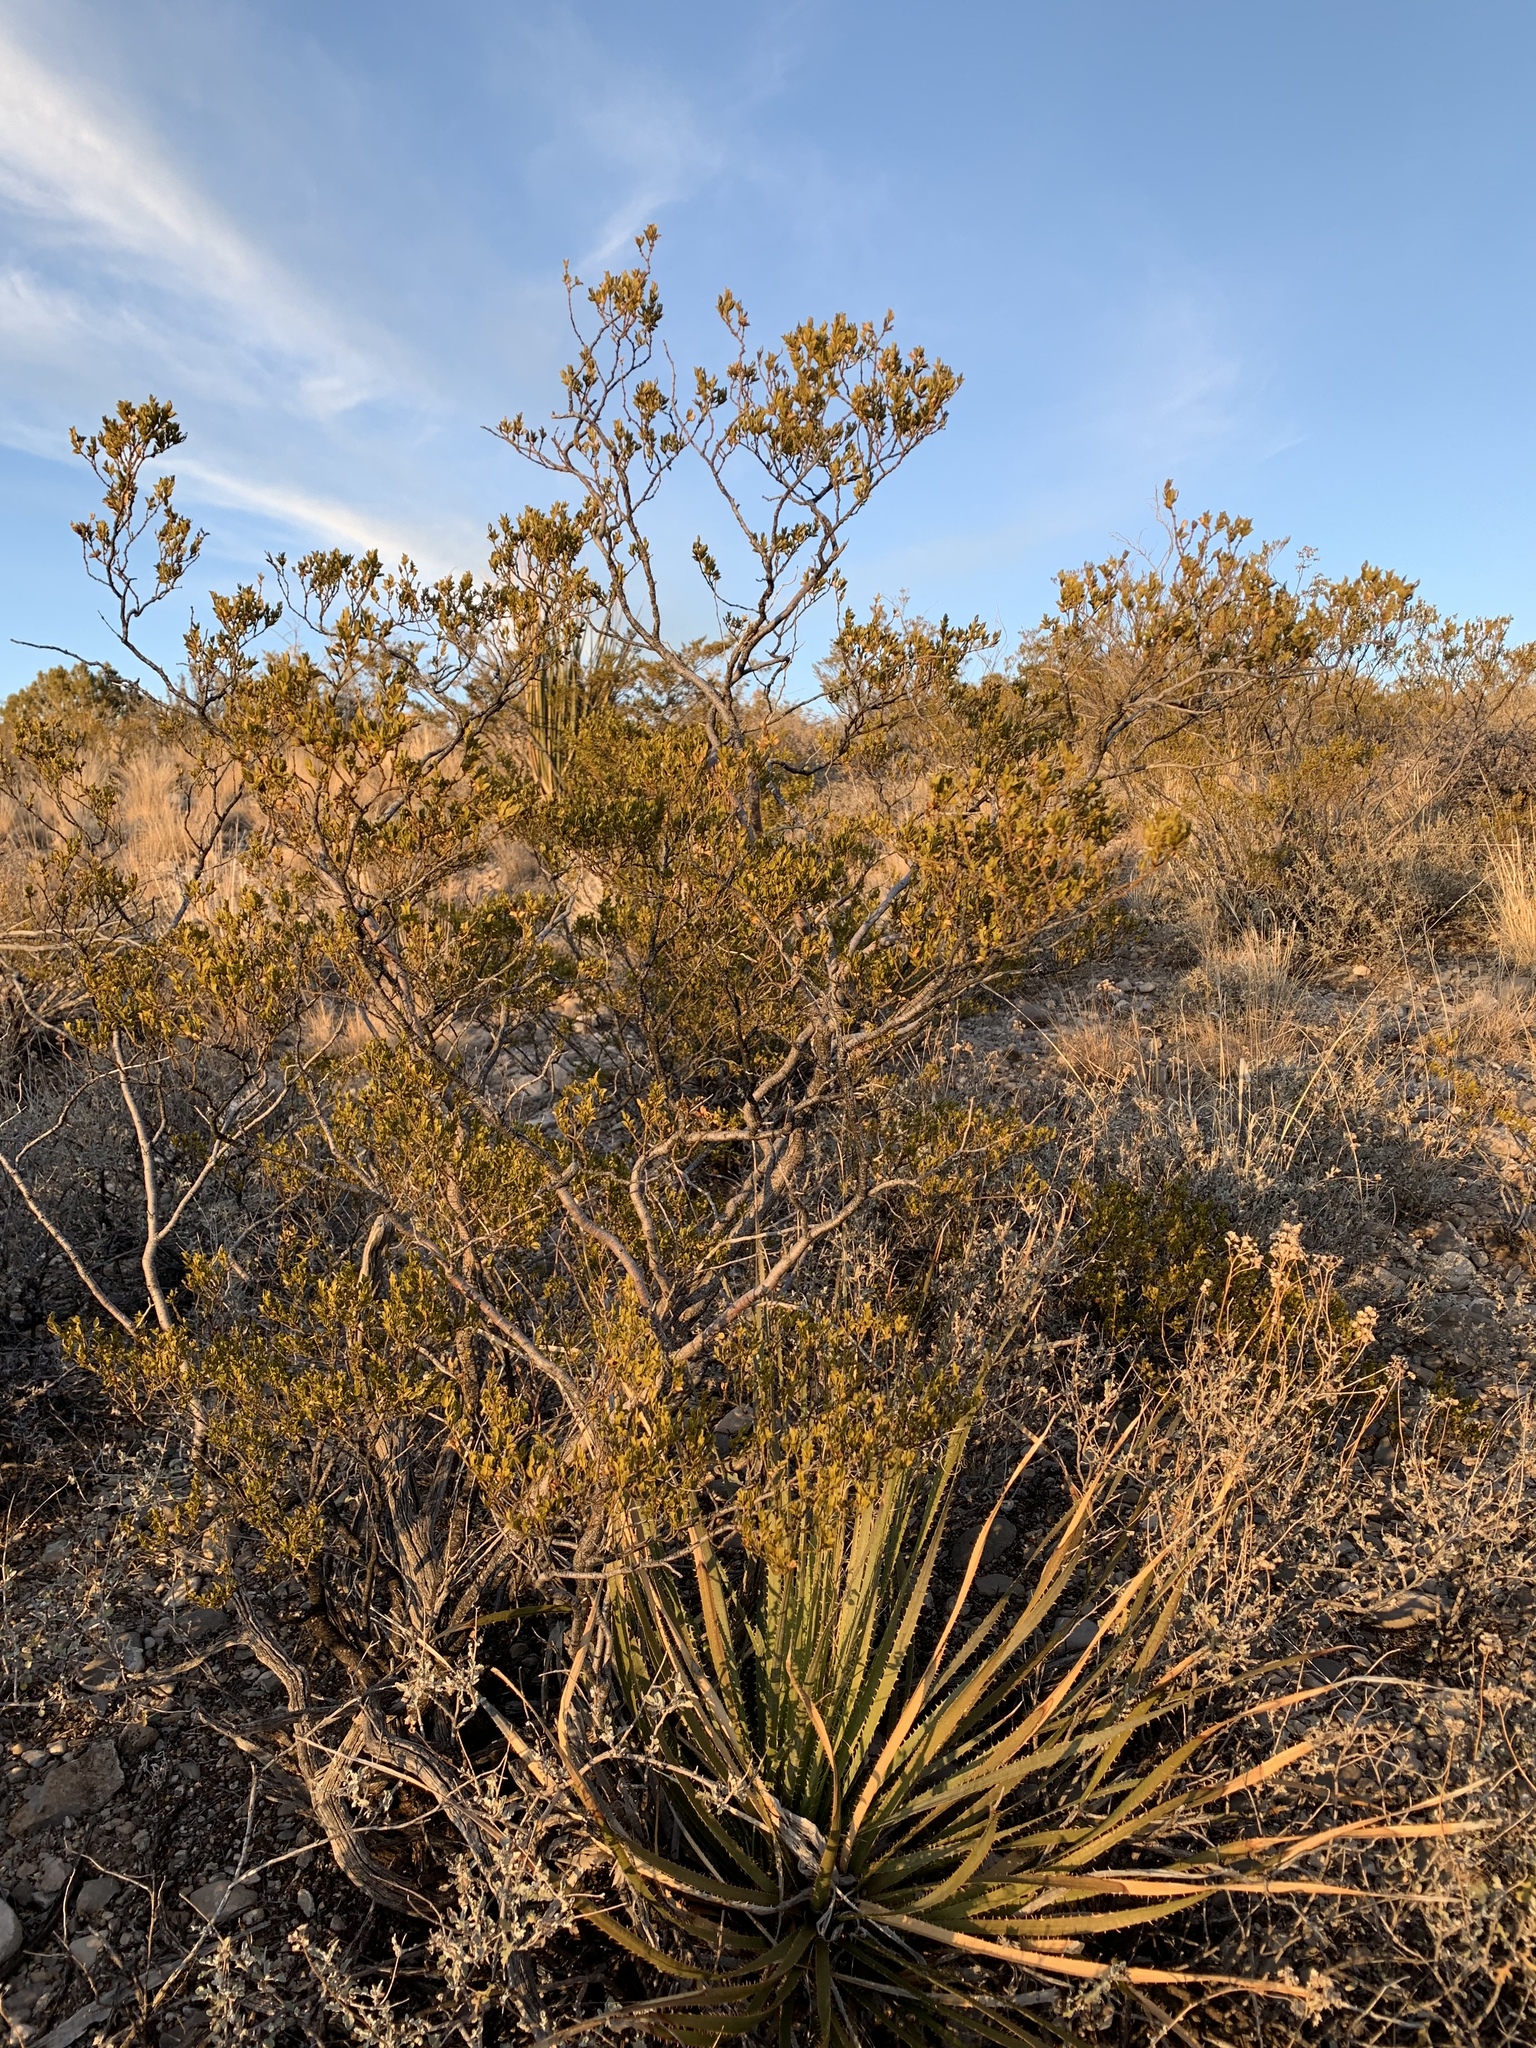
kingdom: Plantae
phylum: Tracheophyta
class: Magnoliopsida
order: Zygophyllales
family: Zygophyllaceae
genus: Larrea
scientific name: Larrea tridentata
